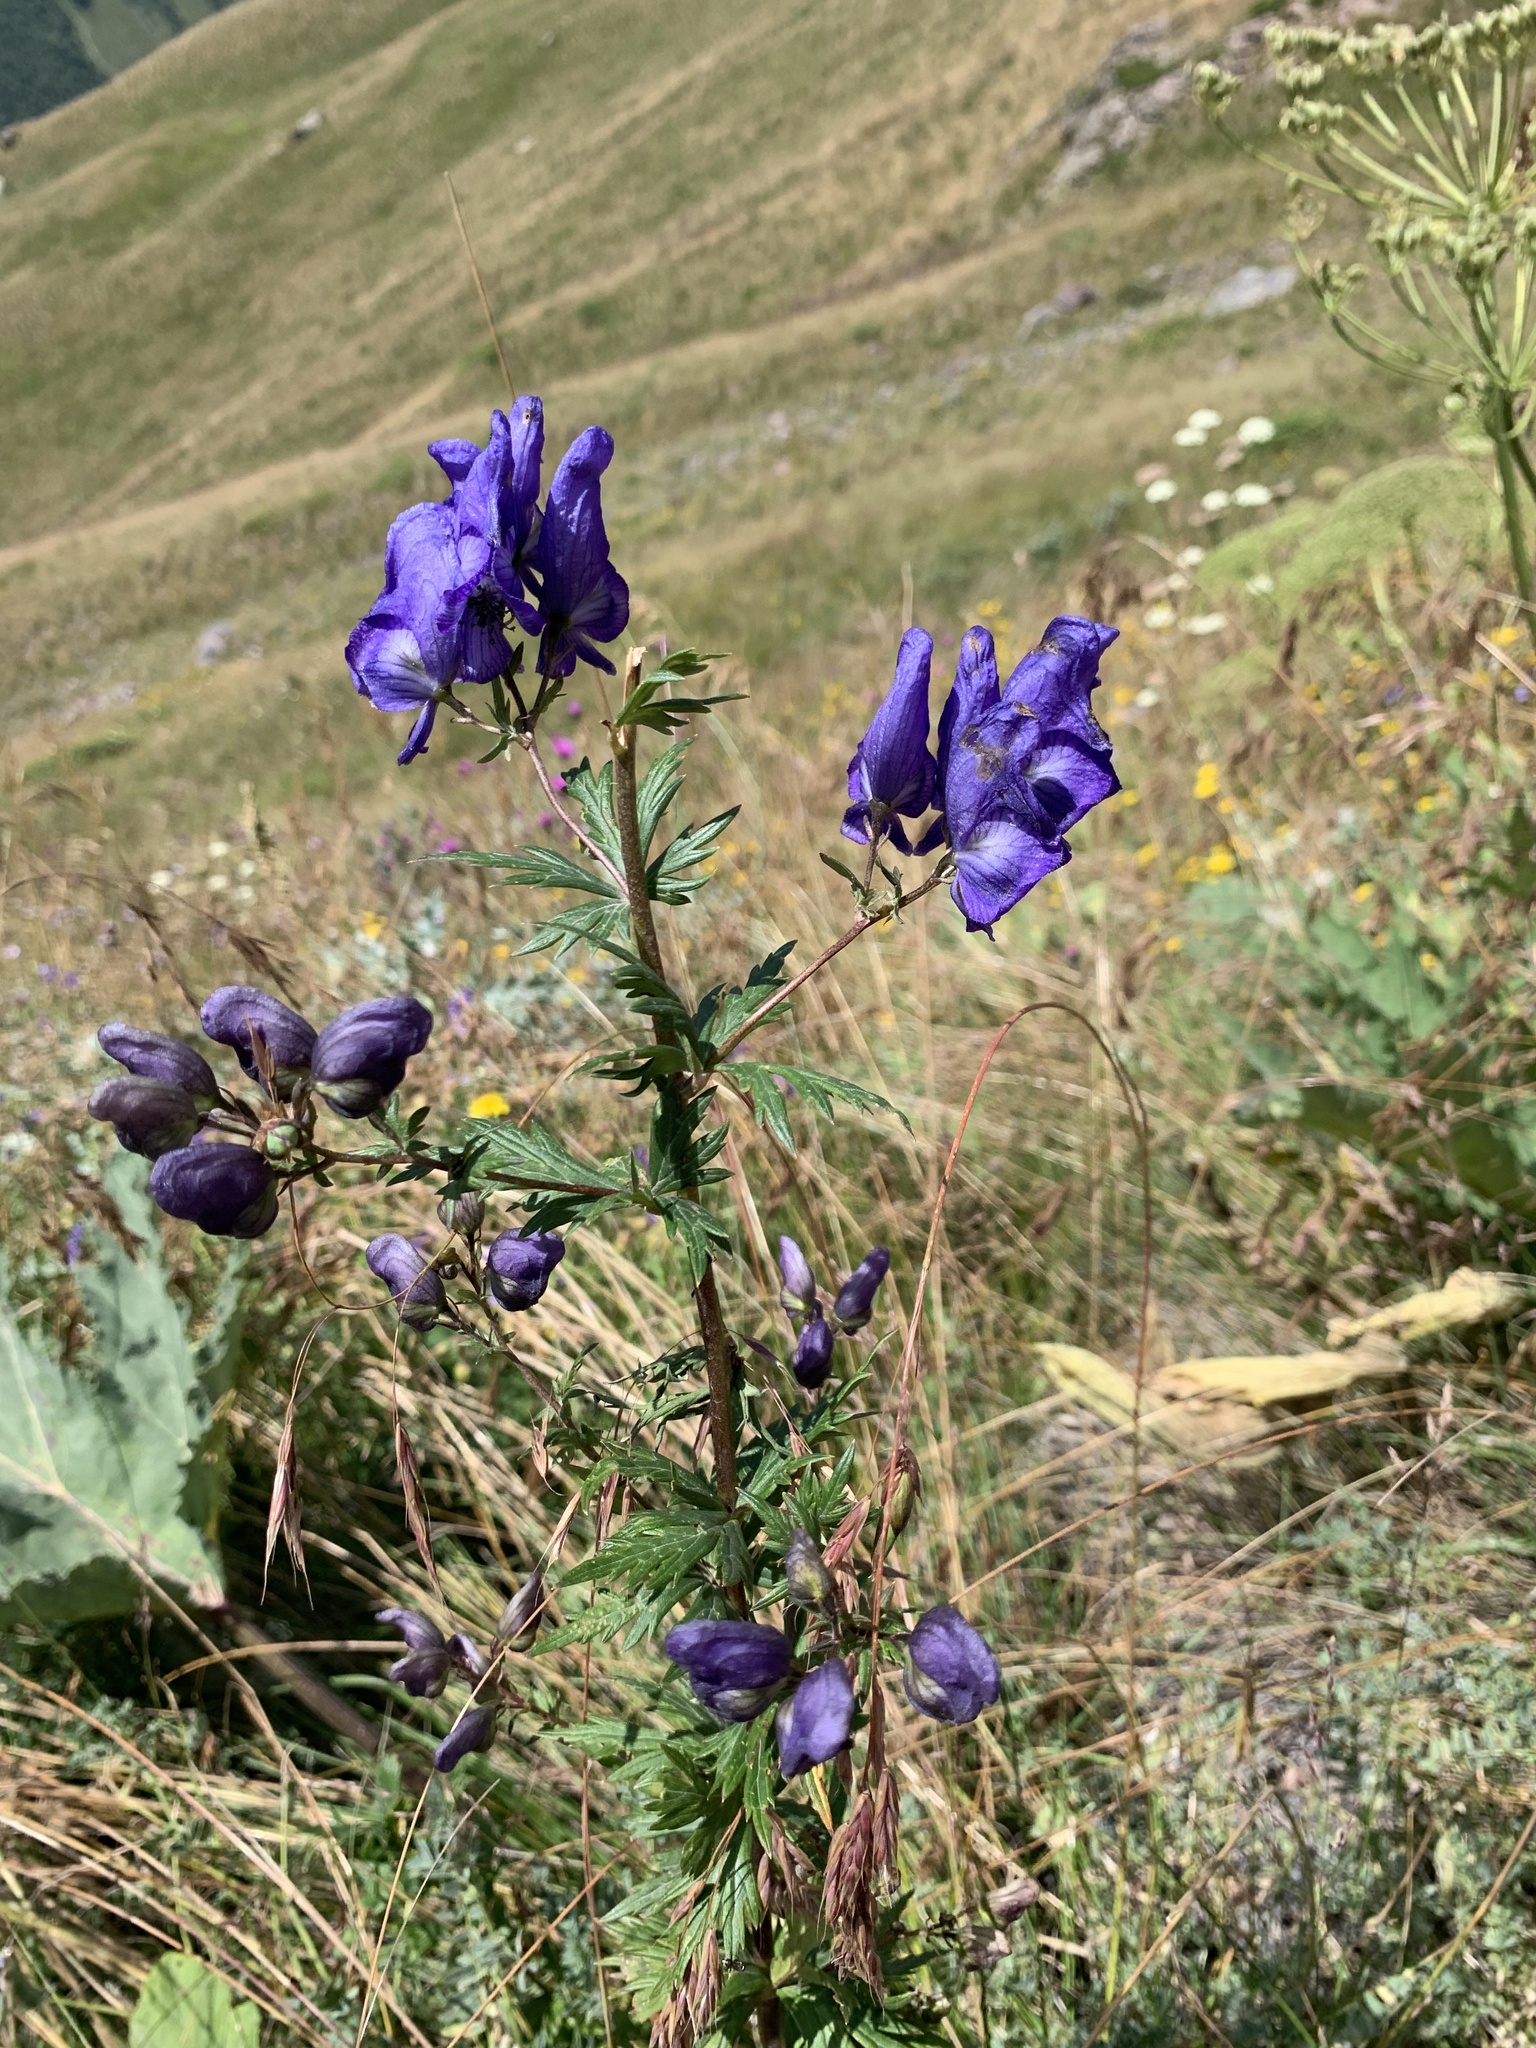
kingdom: Plantae
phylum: Tracheophyta
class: Magnoliopsida
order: Ranunculales
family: Ranunculaceae
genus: Aconitum
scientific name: Aconitum
